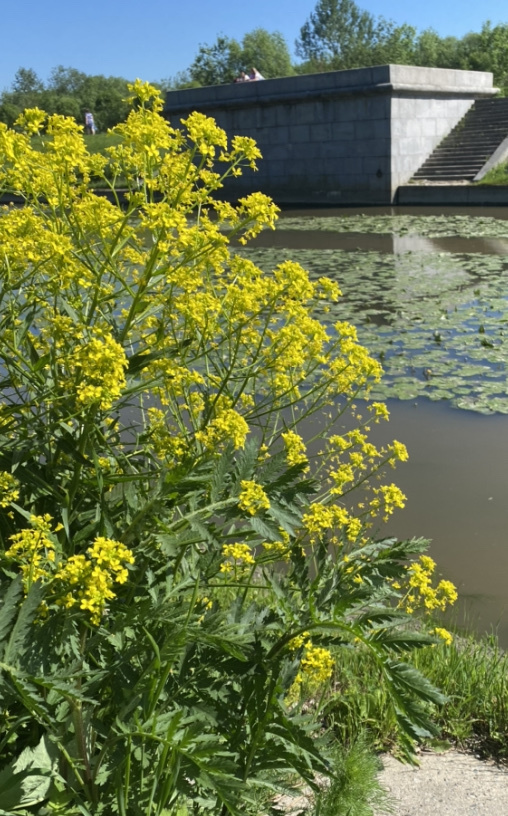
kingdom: Plantae
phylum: Tracheophyta
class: Magnoliopsida
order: Brassicales
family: Brassicaceae
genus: Bunias
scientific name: Bunias orientalis
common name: Warty-cabbage
